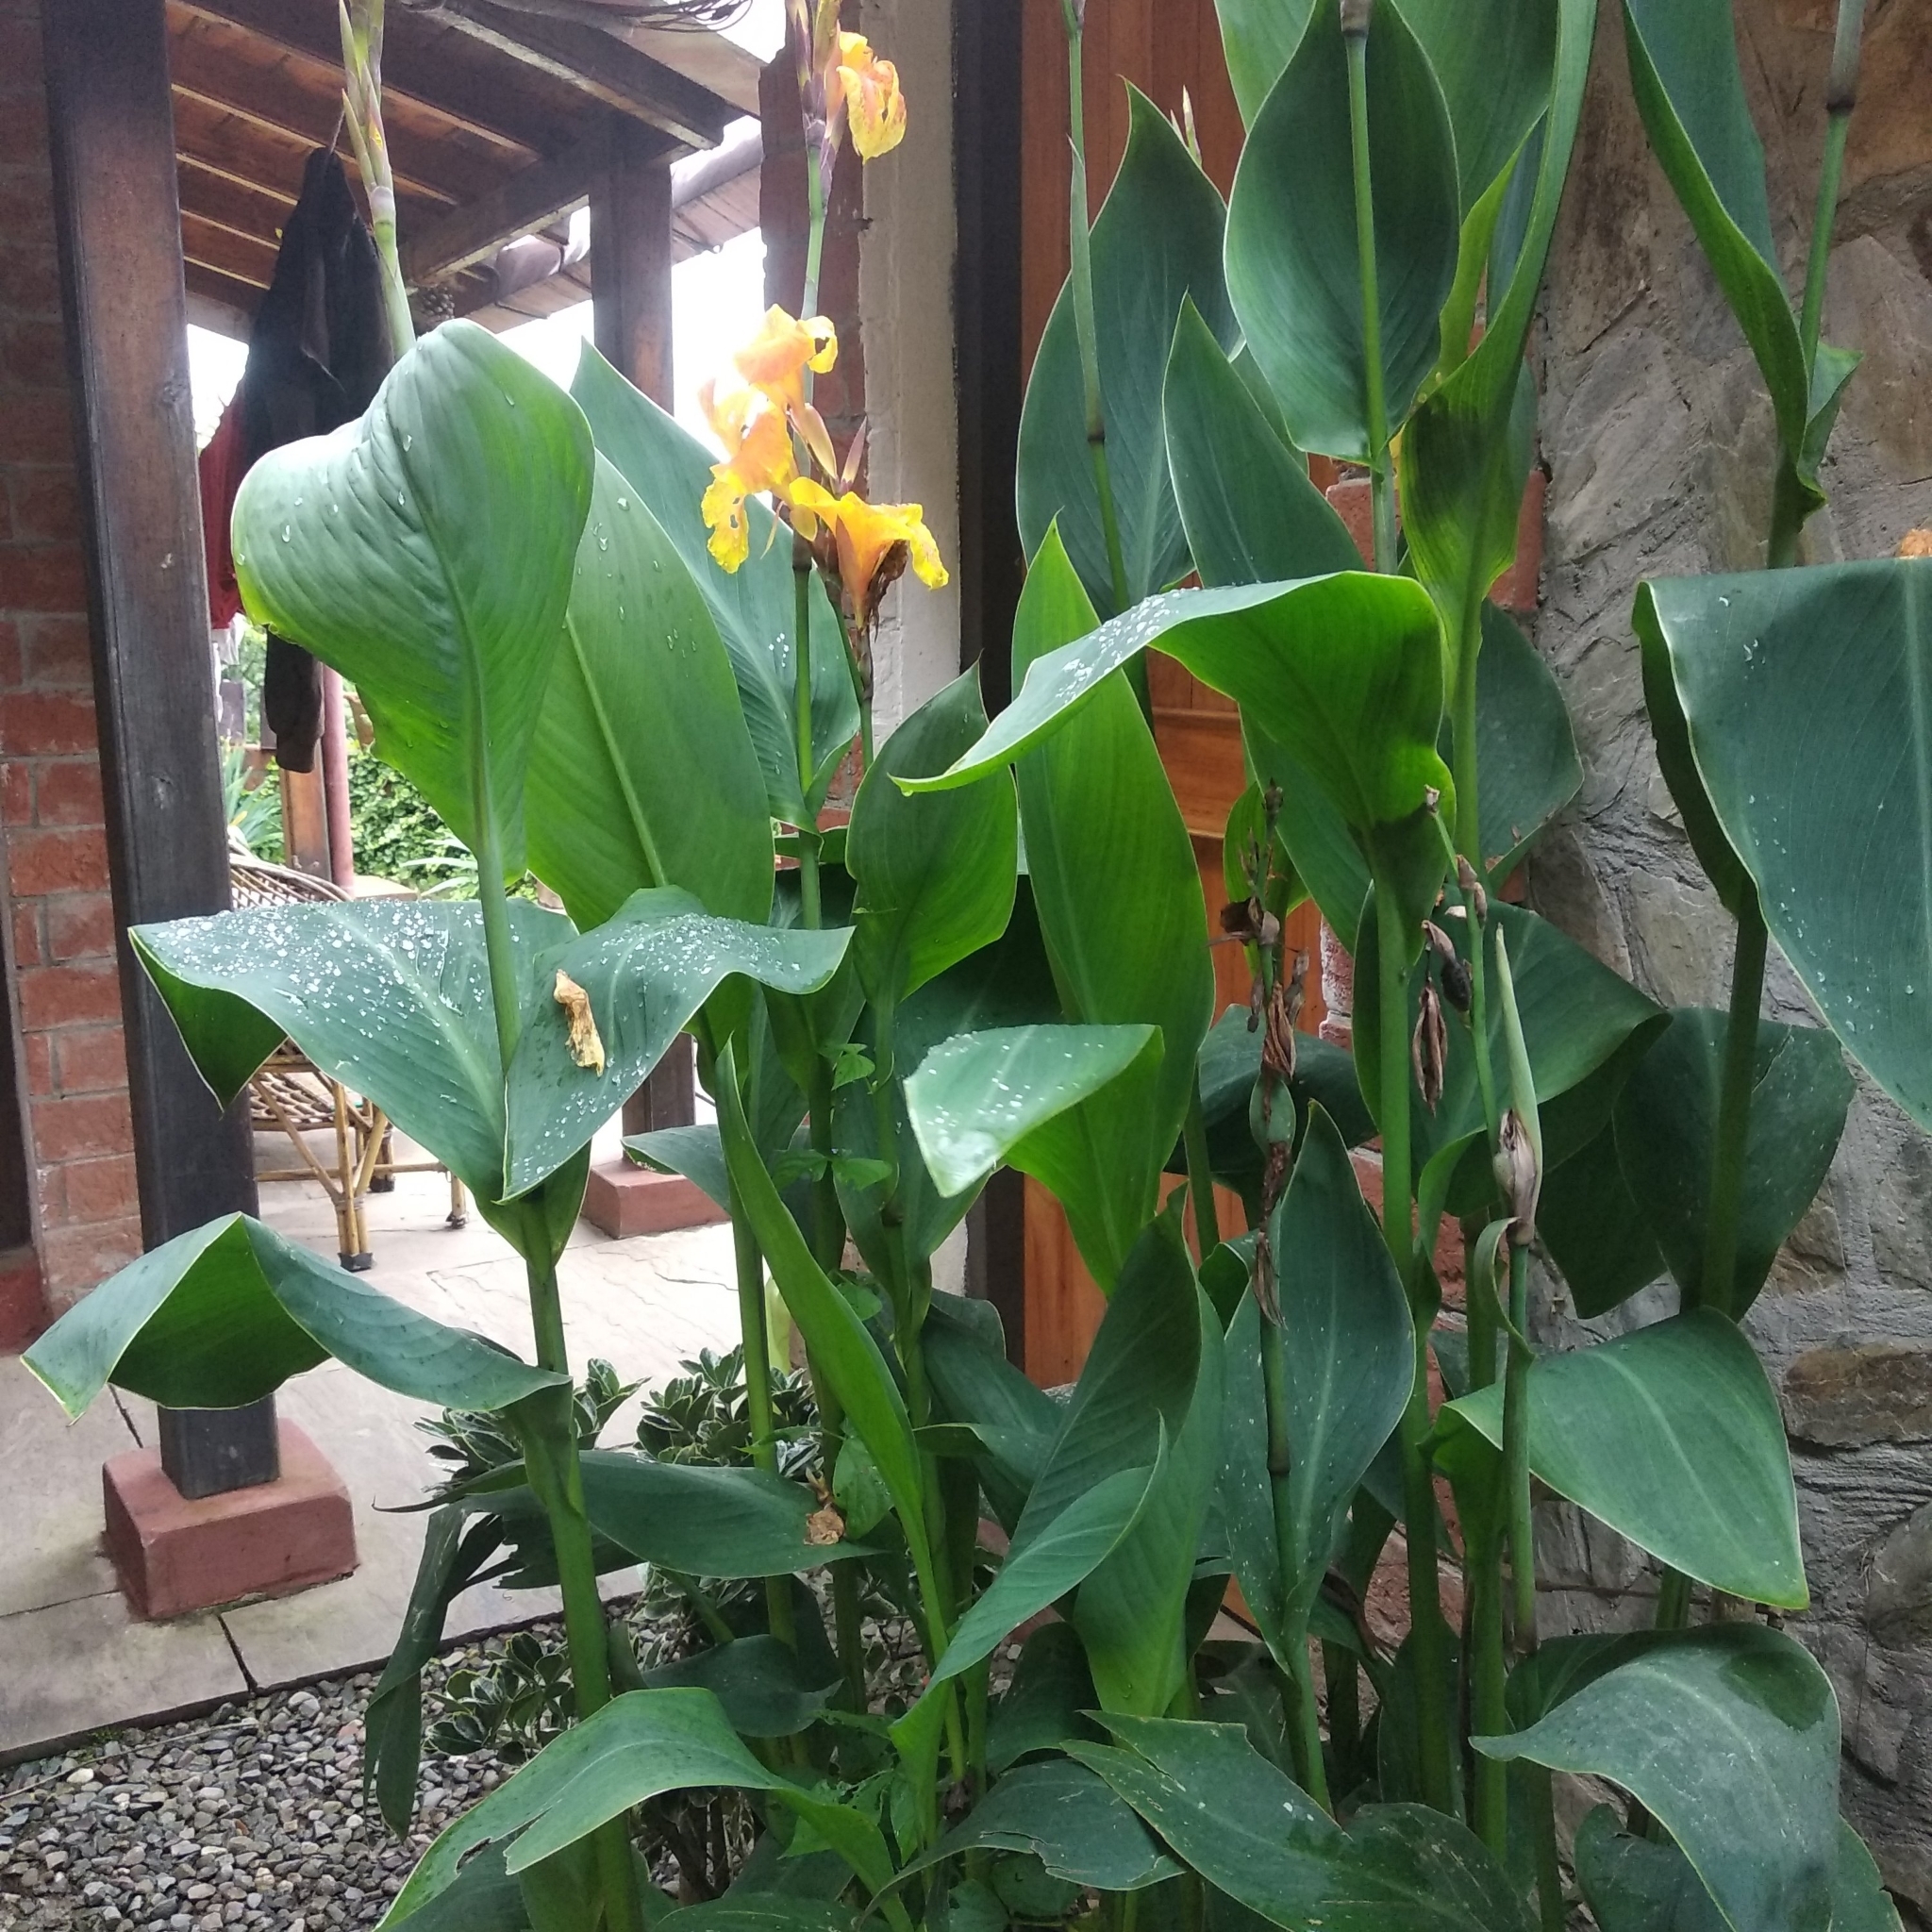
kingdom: Plantae
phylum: Tracheophyta
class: Liliopsida
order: Zingiberales
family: Cannaceae
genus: Canna
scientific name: Canna hybrida
